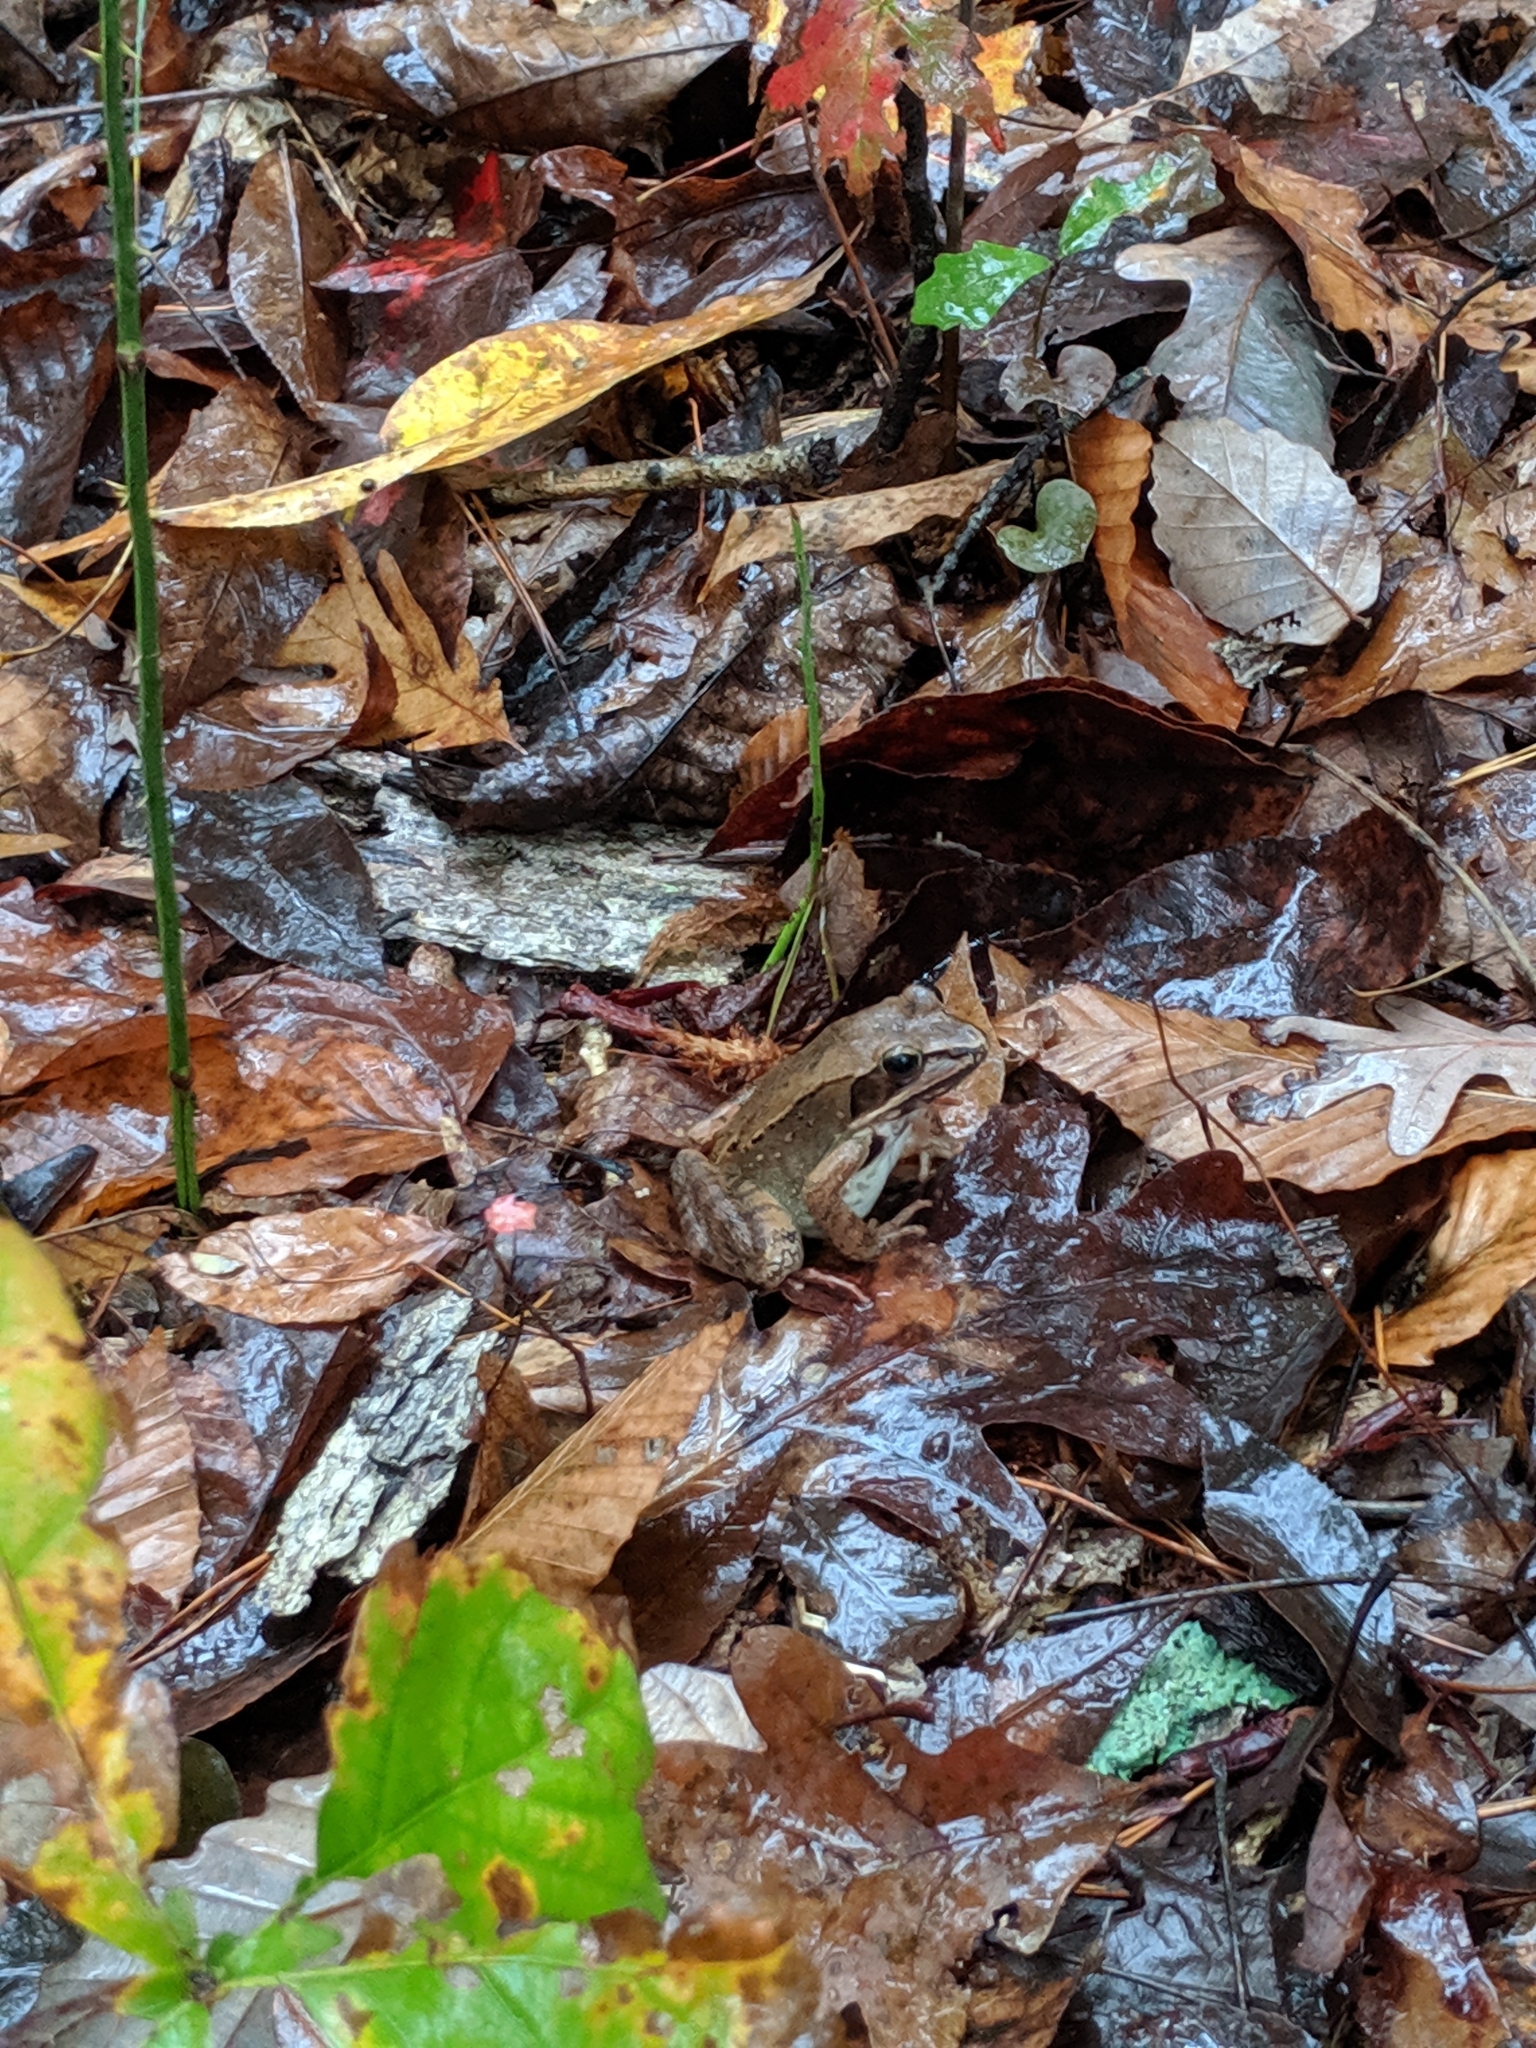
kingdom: Animalia
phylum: Chordata
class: Amphibia
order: Anura
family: Ranidae
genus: Lithobates
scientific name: Lithobates sylvaticus
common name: Wood frog
